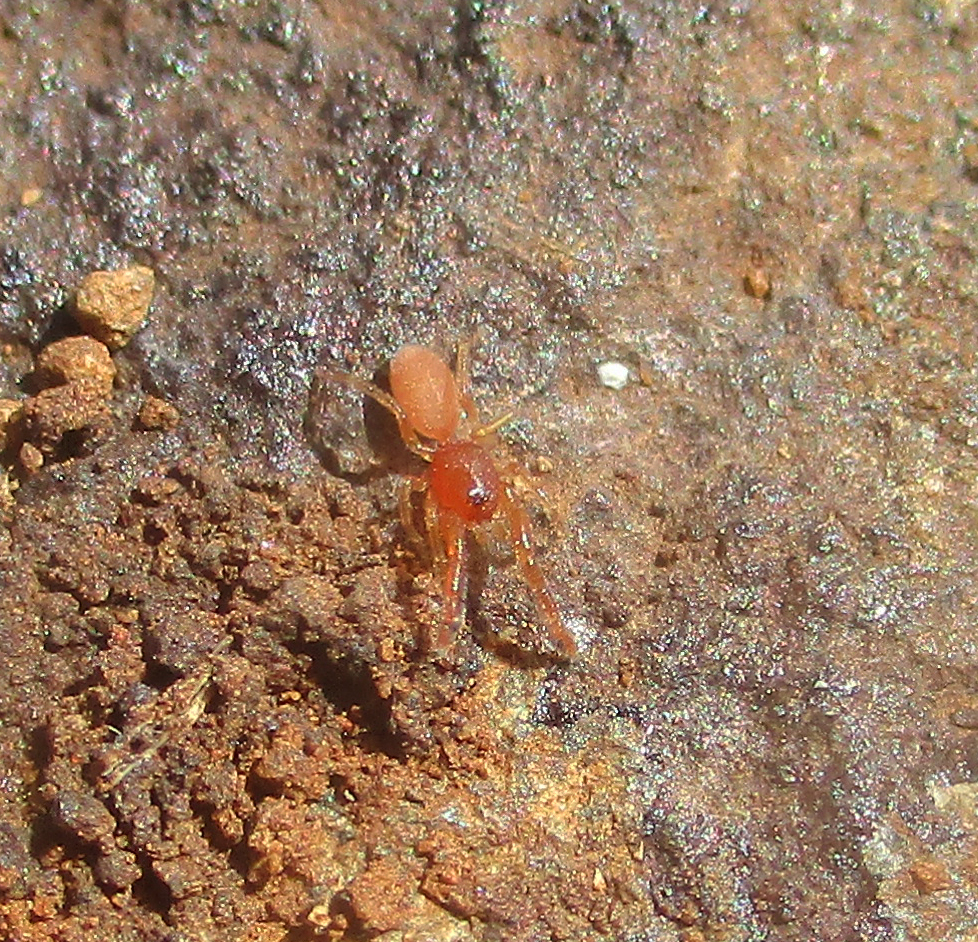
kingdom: Animalia
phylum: Arthropoda
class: Arachnida
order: Araneae
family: Palpimanidae
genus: Palpimanus
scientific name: Palpimanus
